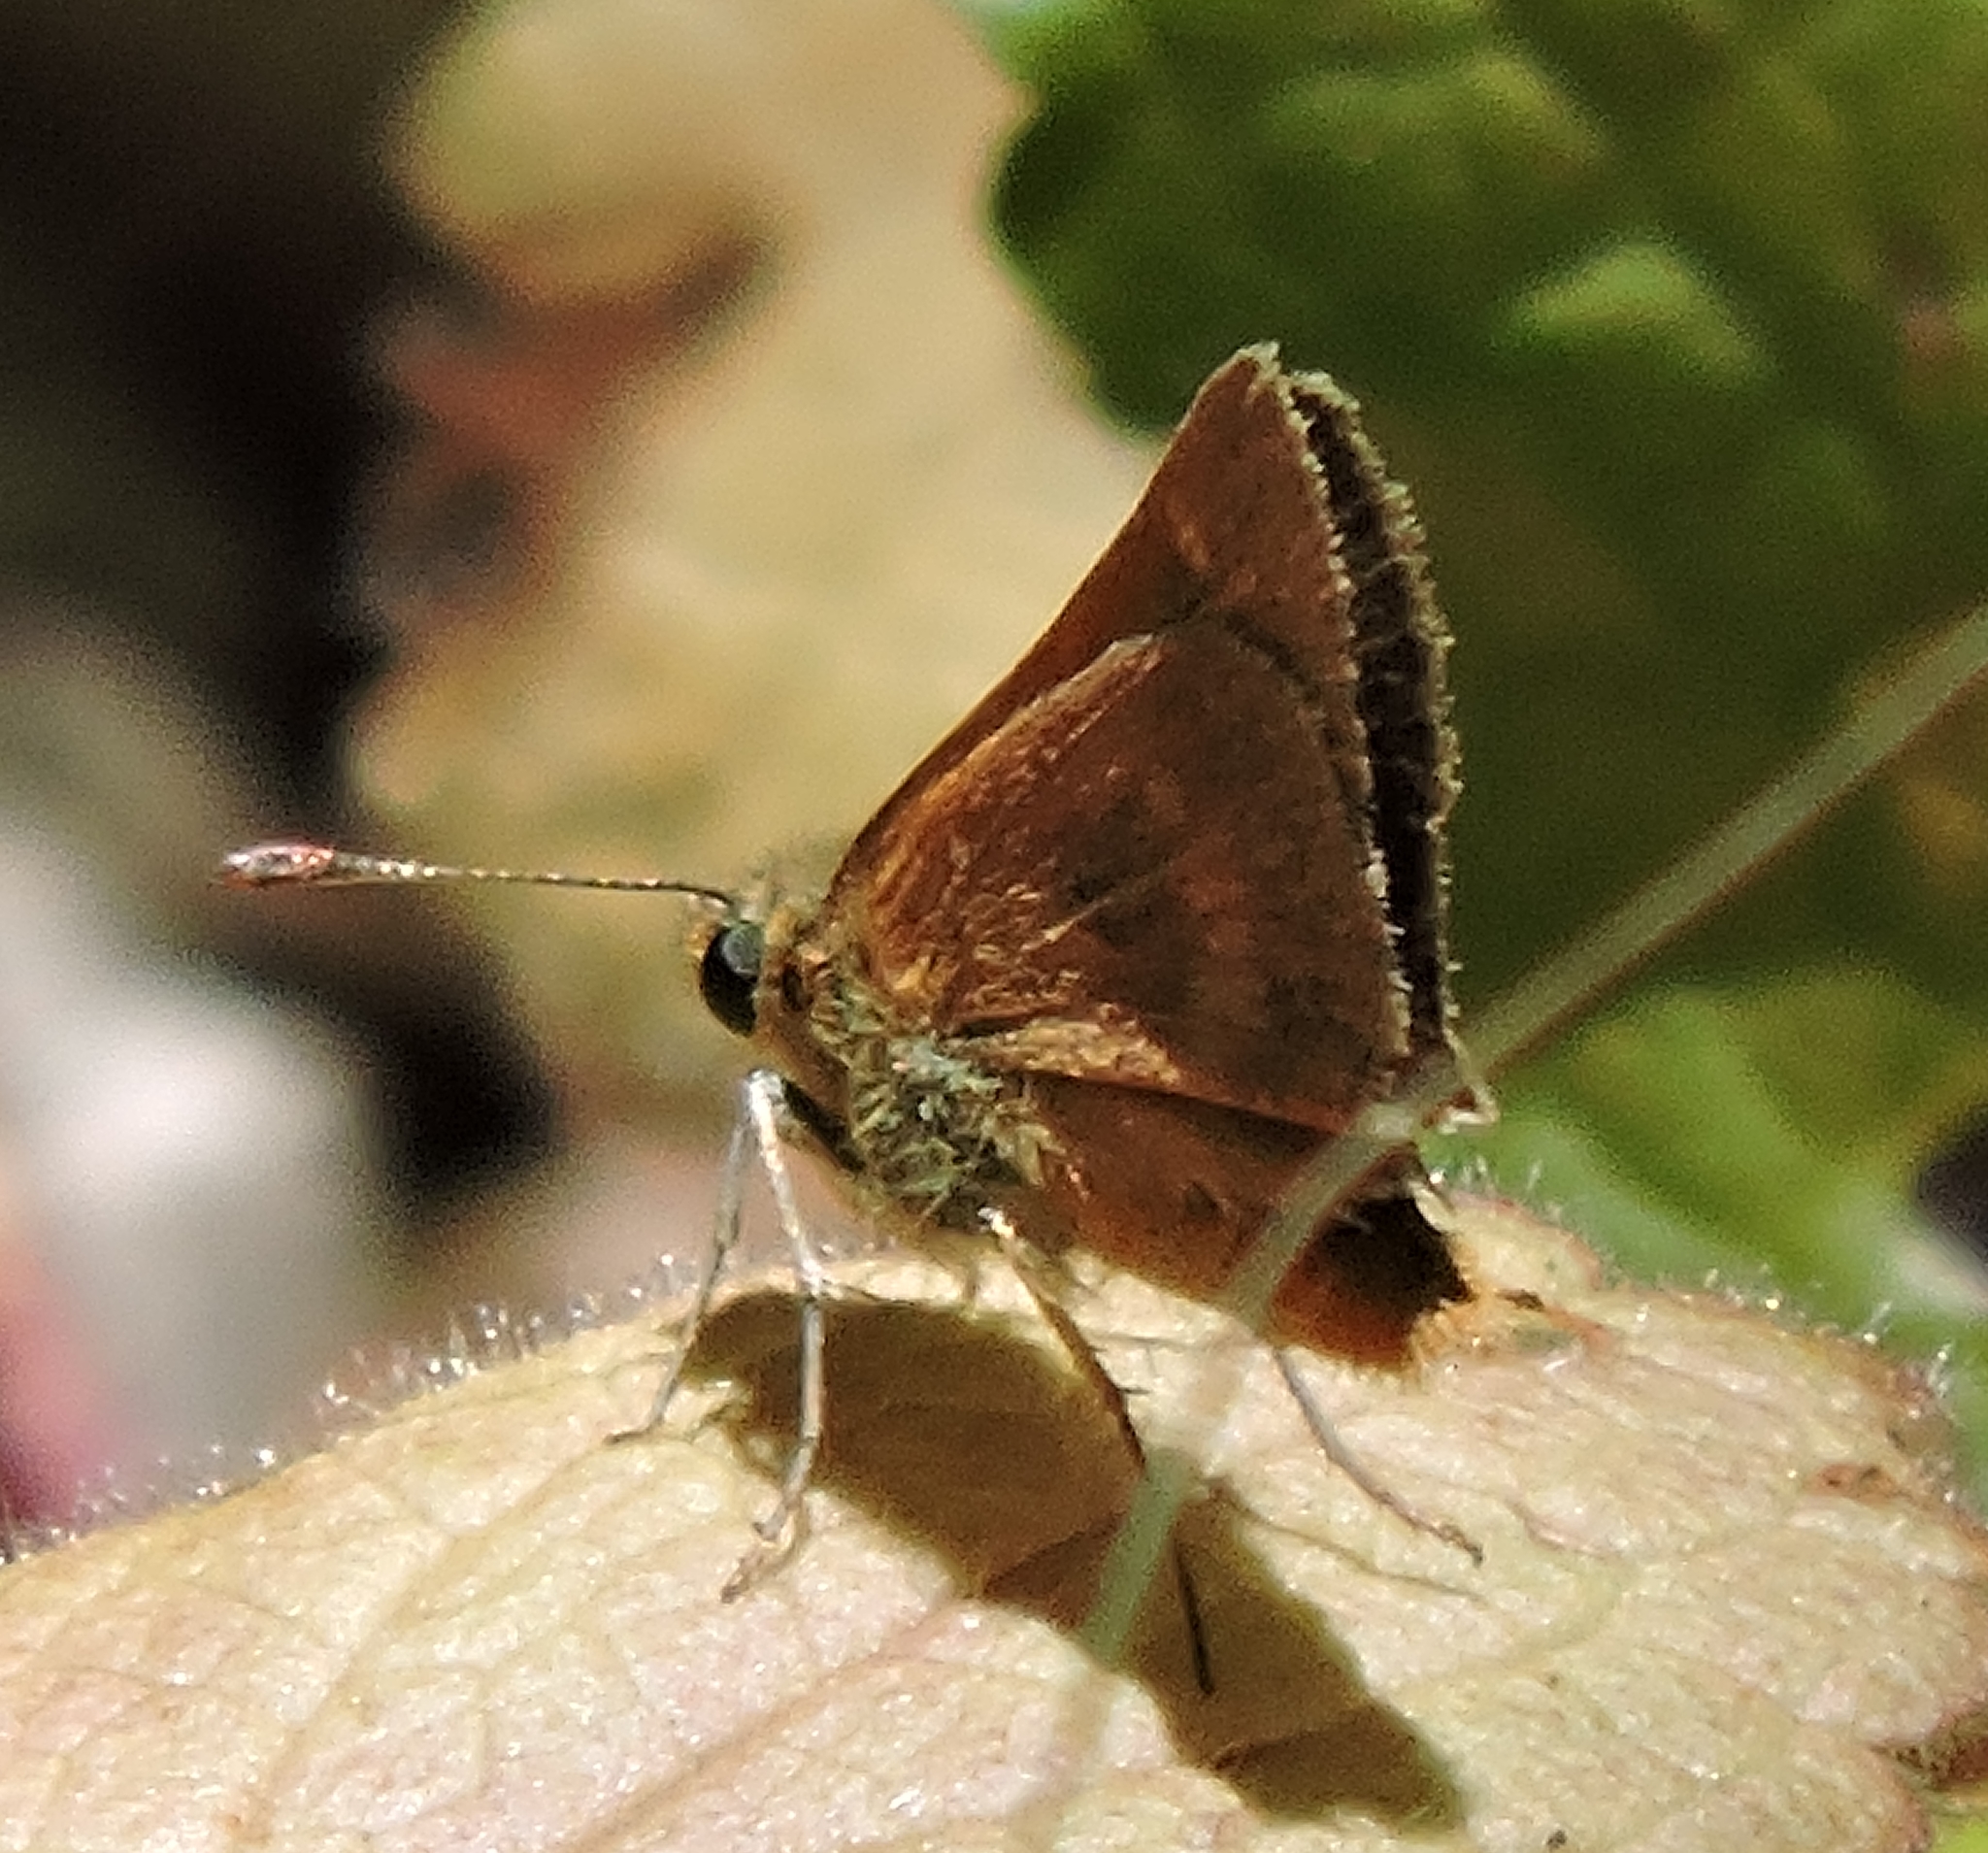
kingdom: Animalia
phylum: Arthropoda
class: Insecta
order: Lepidoptera
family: Hesperiidae
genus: Ochlodes
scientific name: Ochlodes agricola
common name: Rural skipper
